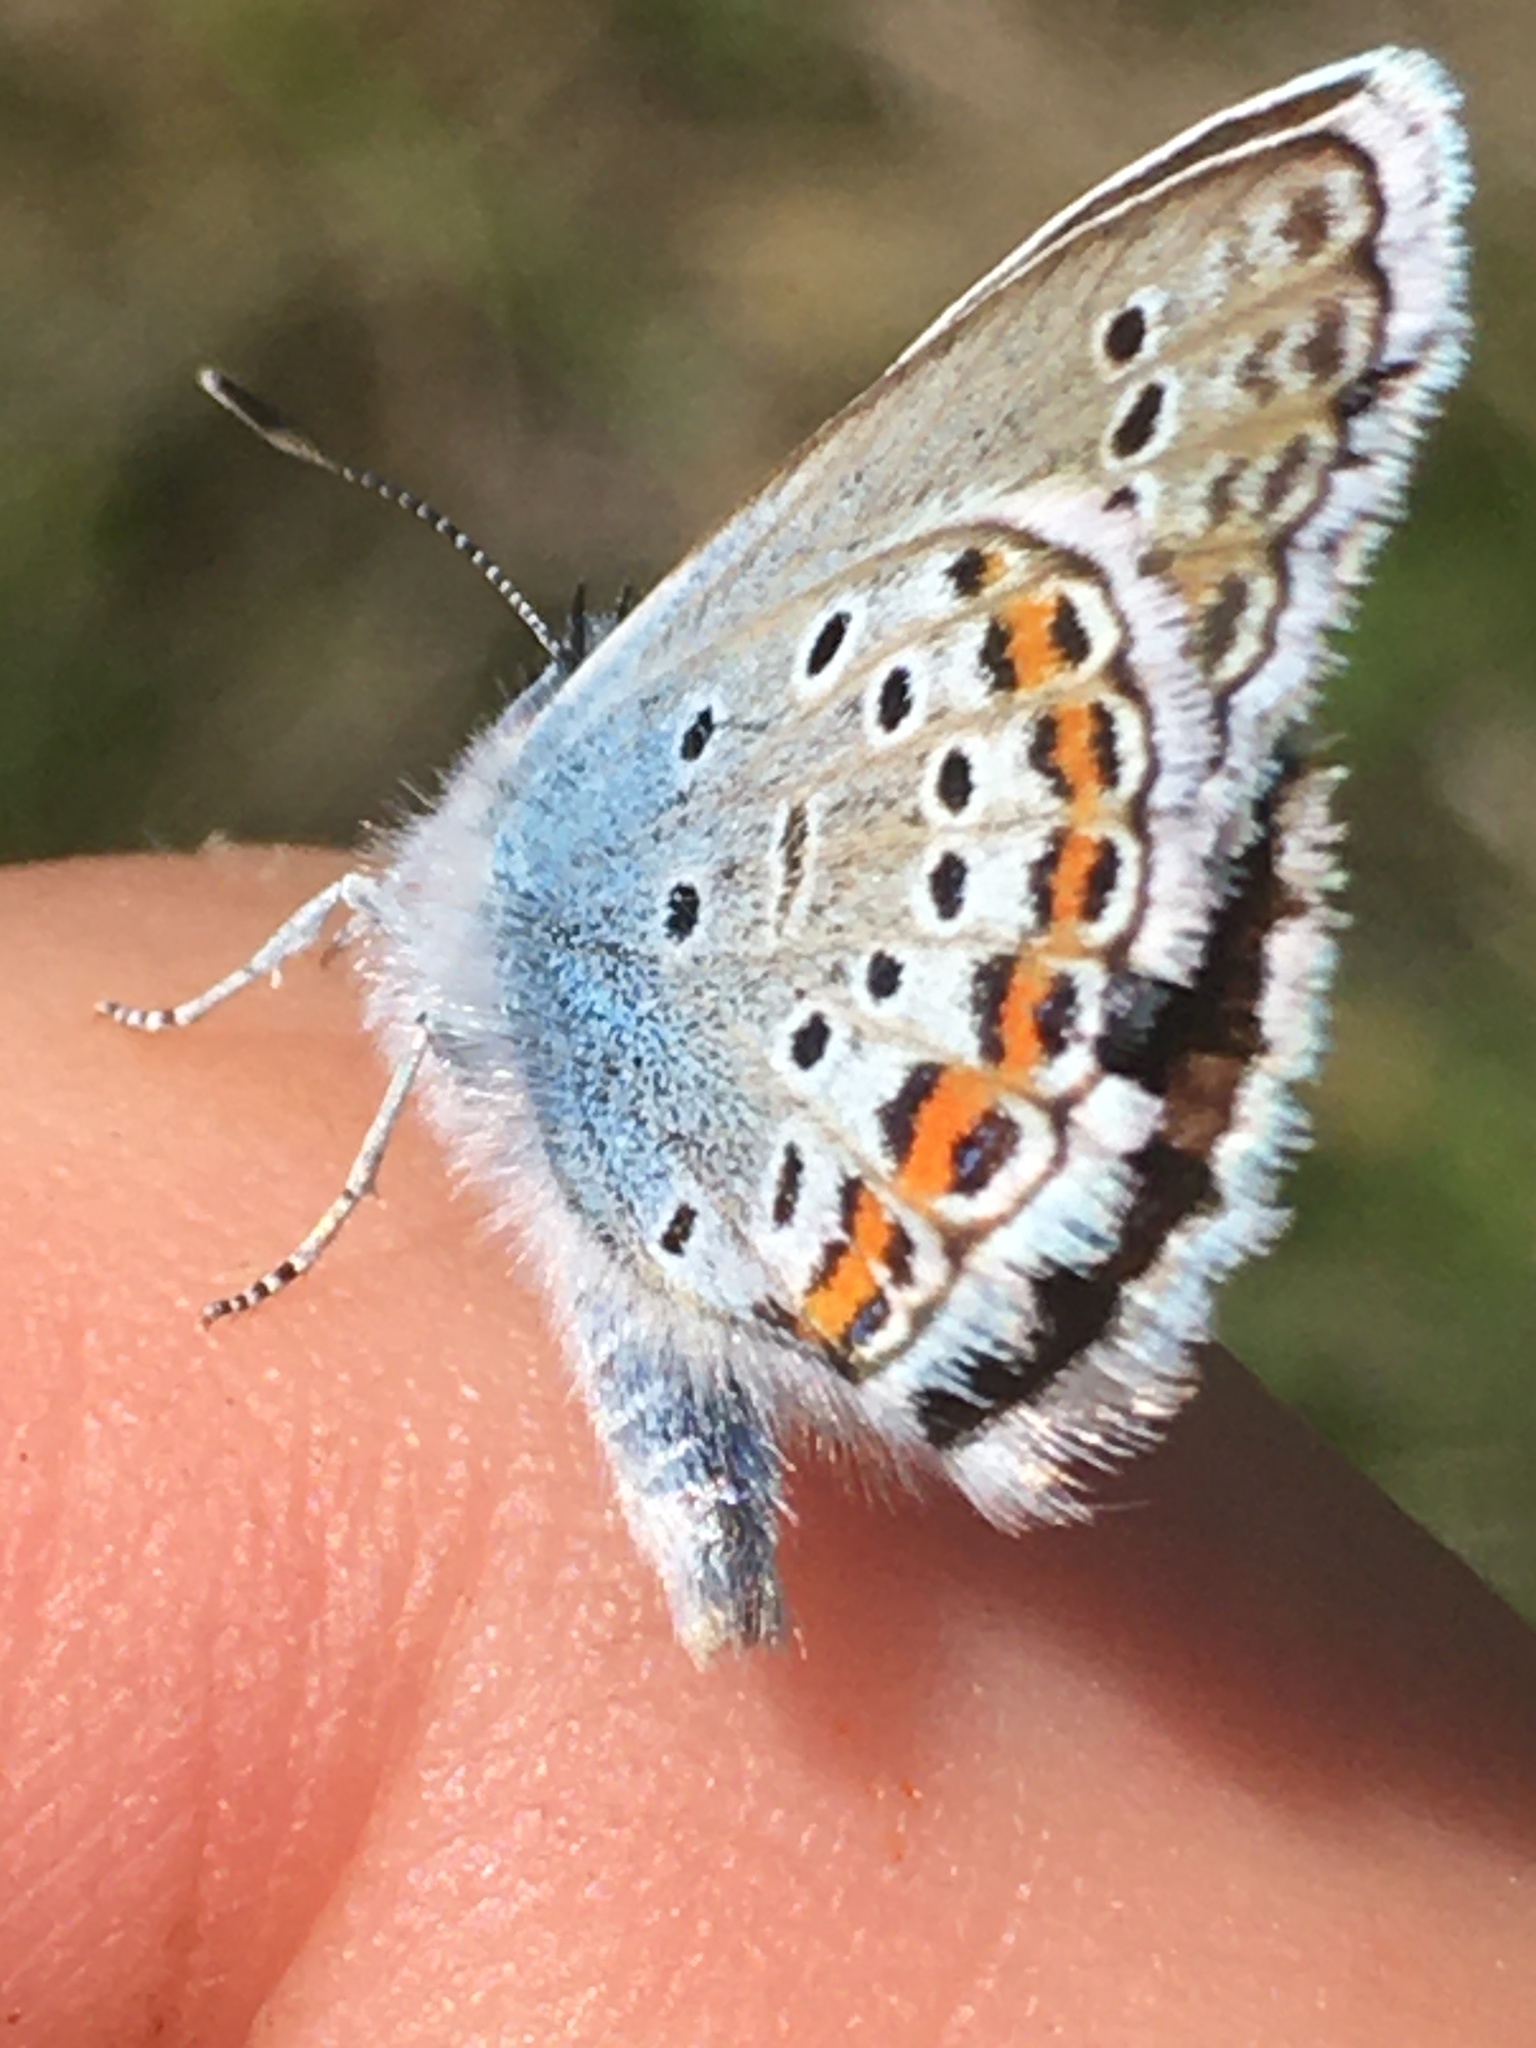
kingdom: Animalia
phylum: Arthropoda
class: Insecta
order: Lepidoptera
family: Lycaenidae
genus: Plebejus
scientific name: Plebejus argus
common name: Silver-studded blue
